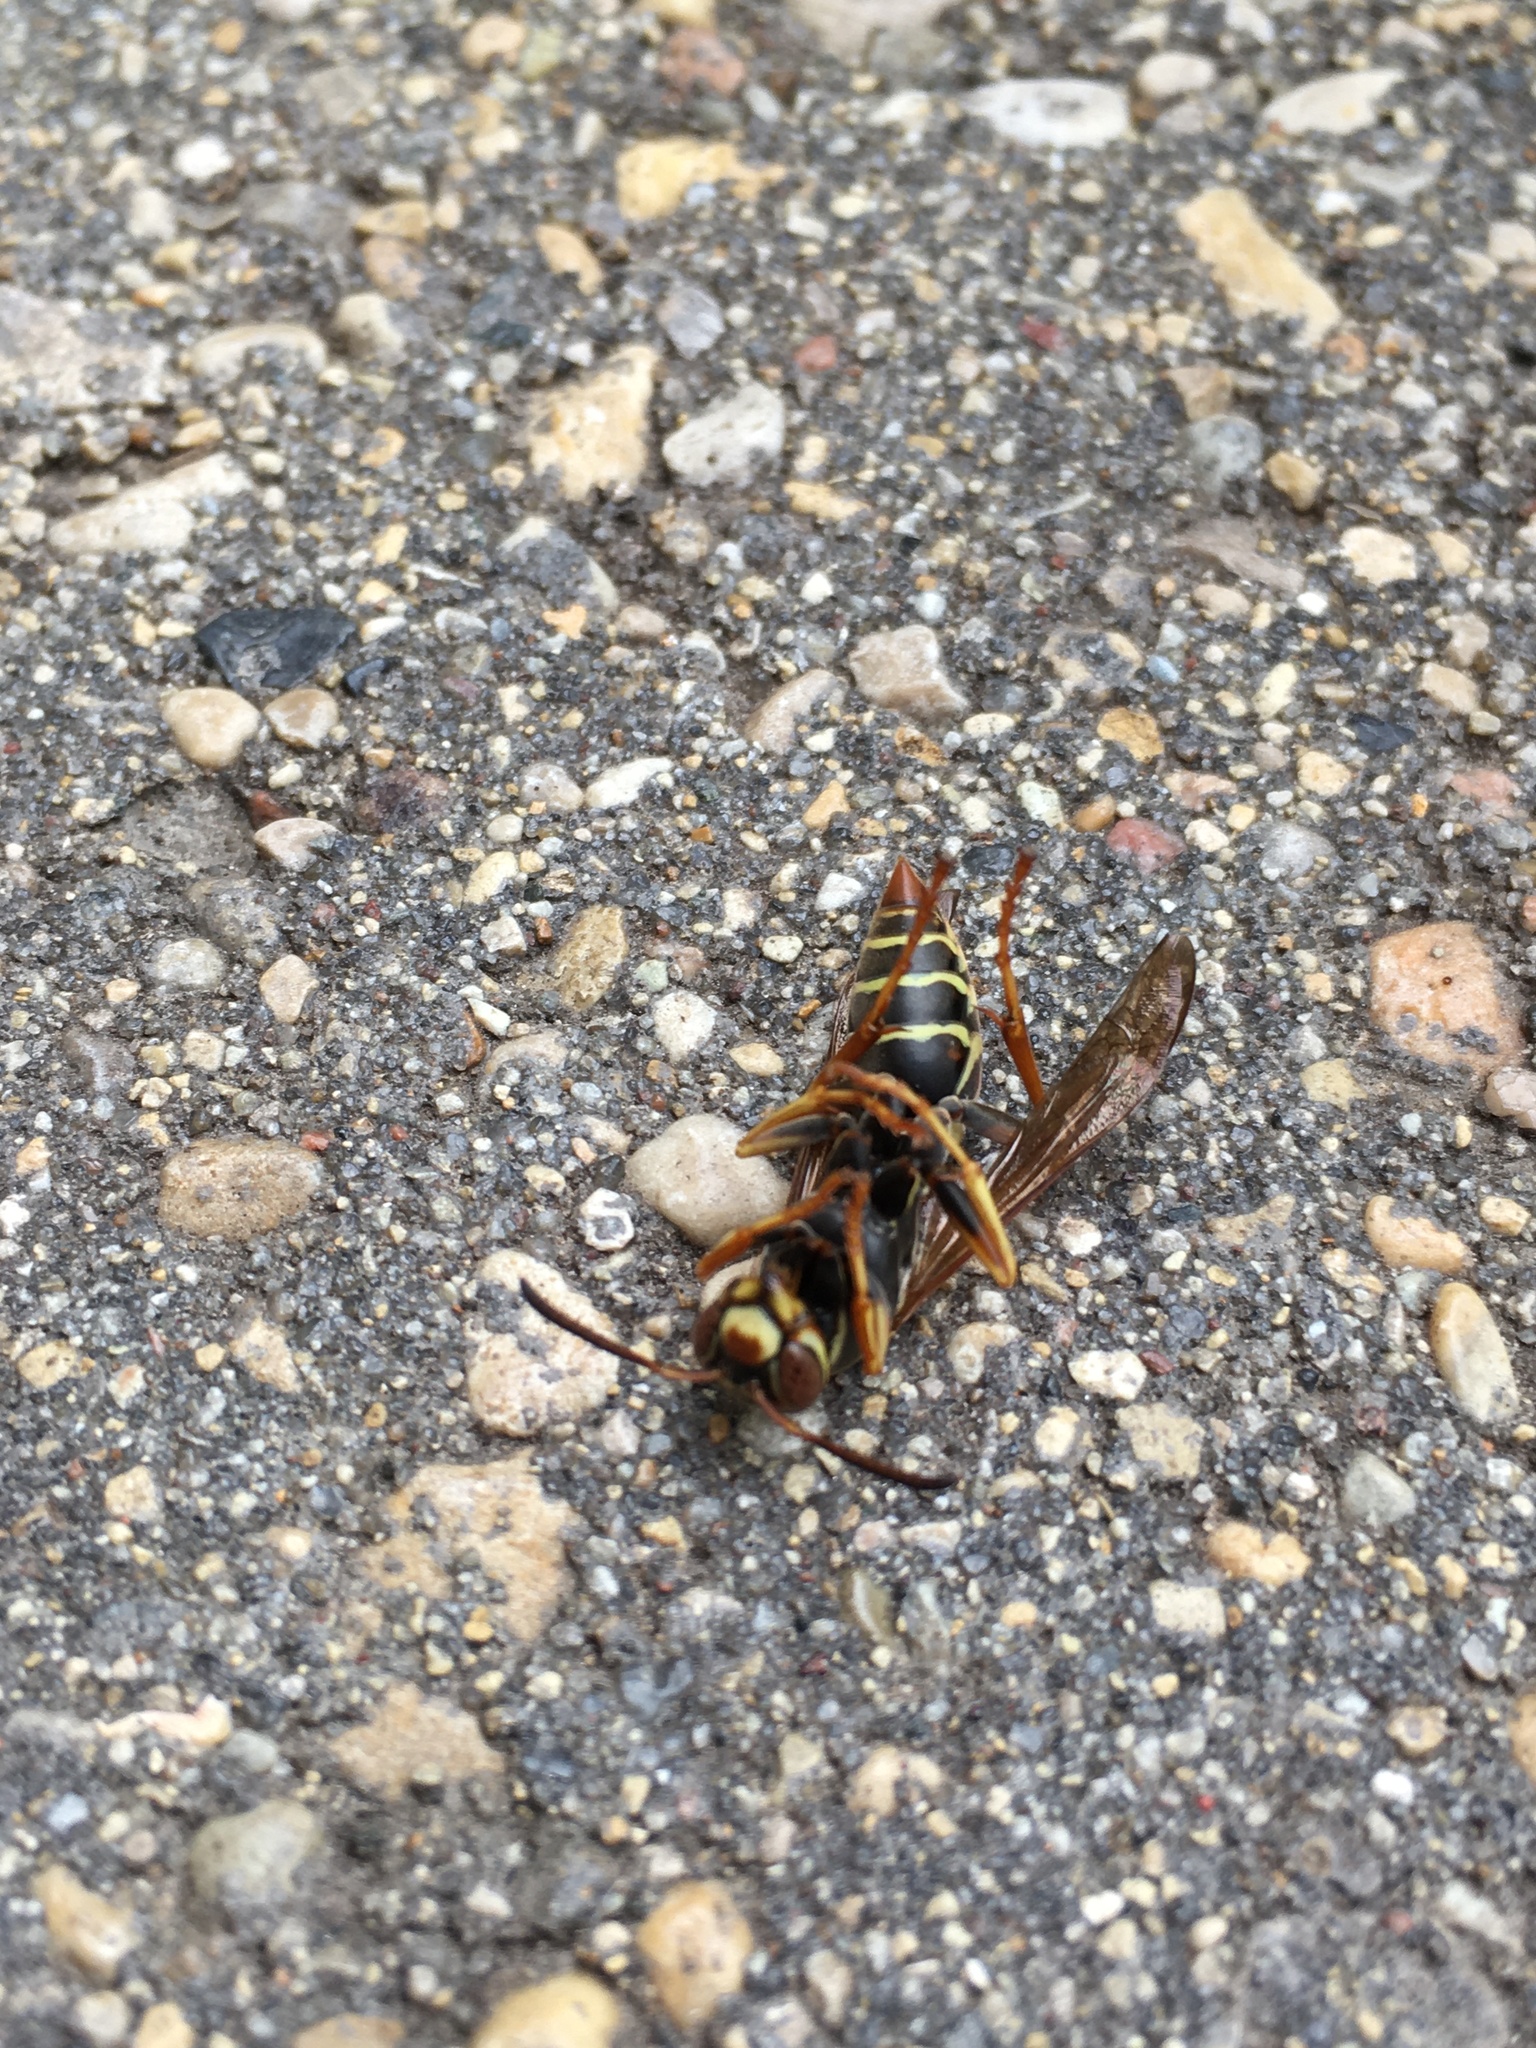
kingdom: Animalia
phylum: Arthropoda
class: Insecta
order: Hymenoptera
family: Eumenidae
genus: Polistes
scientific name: Polistes fuscatus
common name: Dark paper wasp
